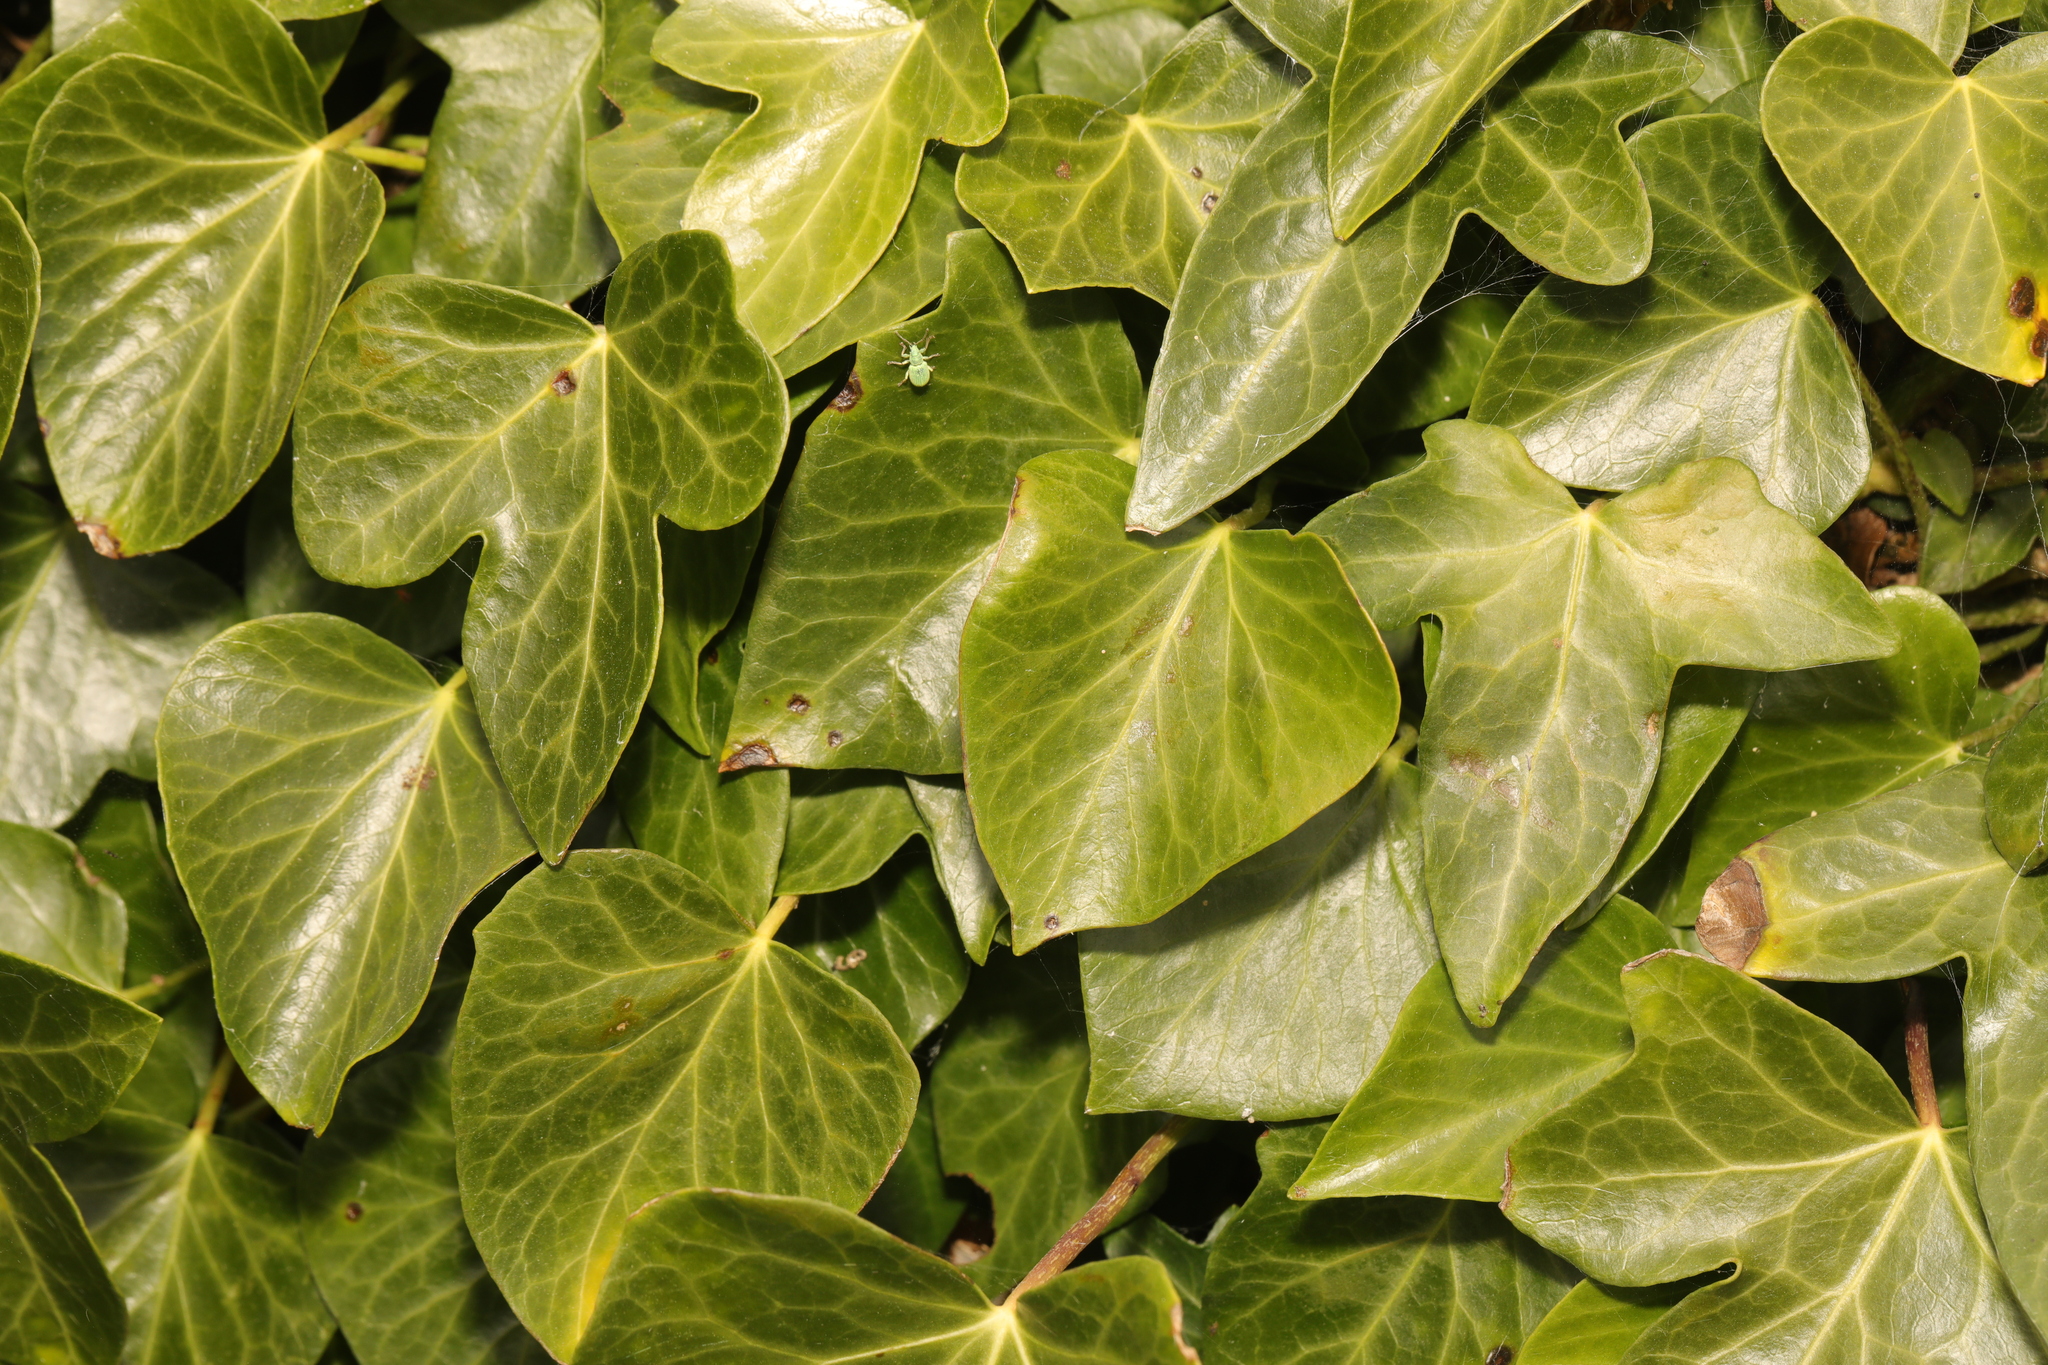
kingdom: Plantae
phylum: Tracheophyta
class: Magnoliopsida
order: Apiales
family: Araliaceae
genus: Hedera
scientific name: Hedera helix
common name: Ivy
